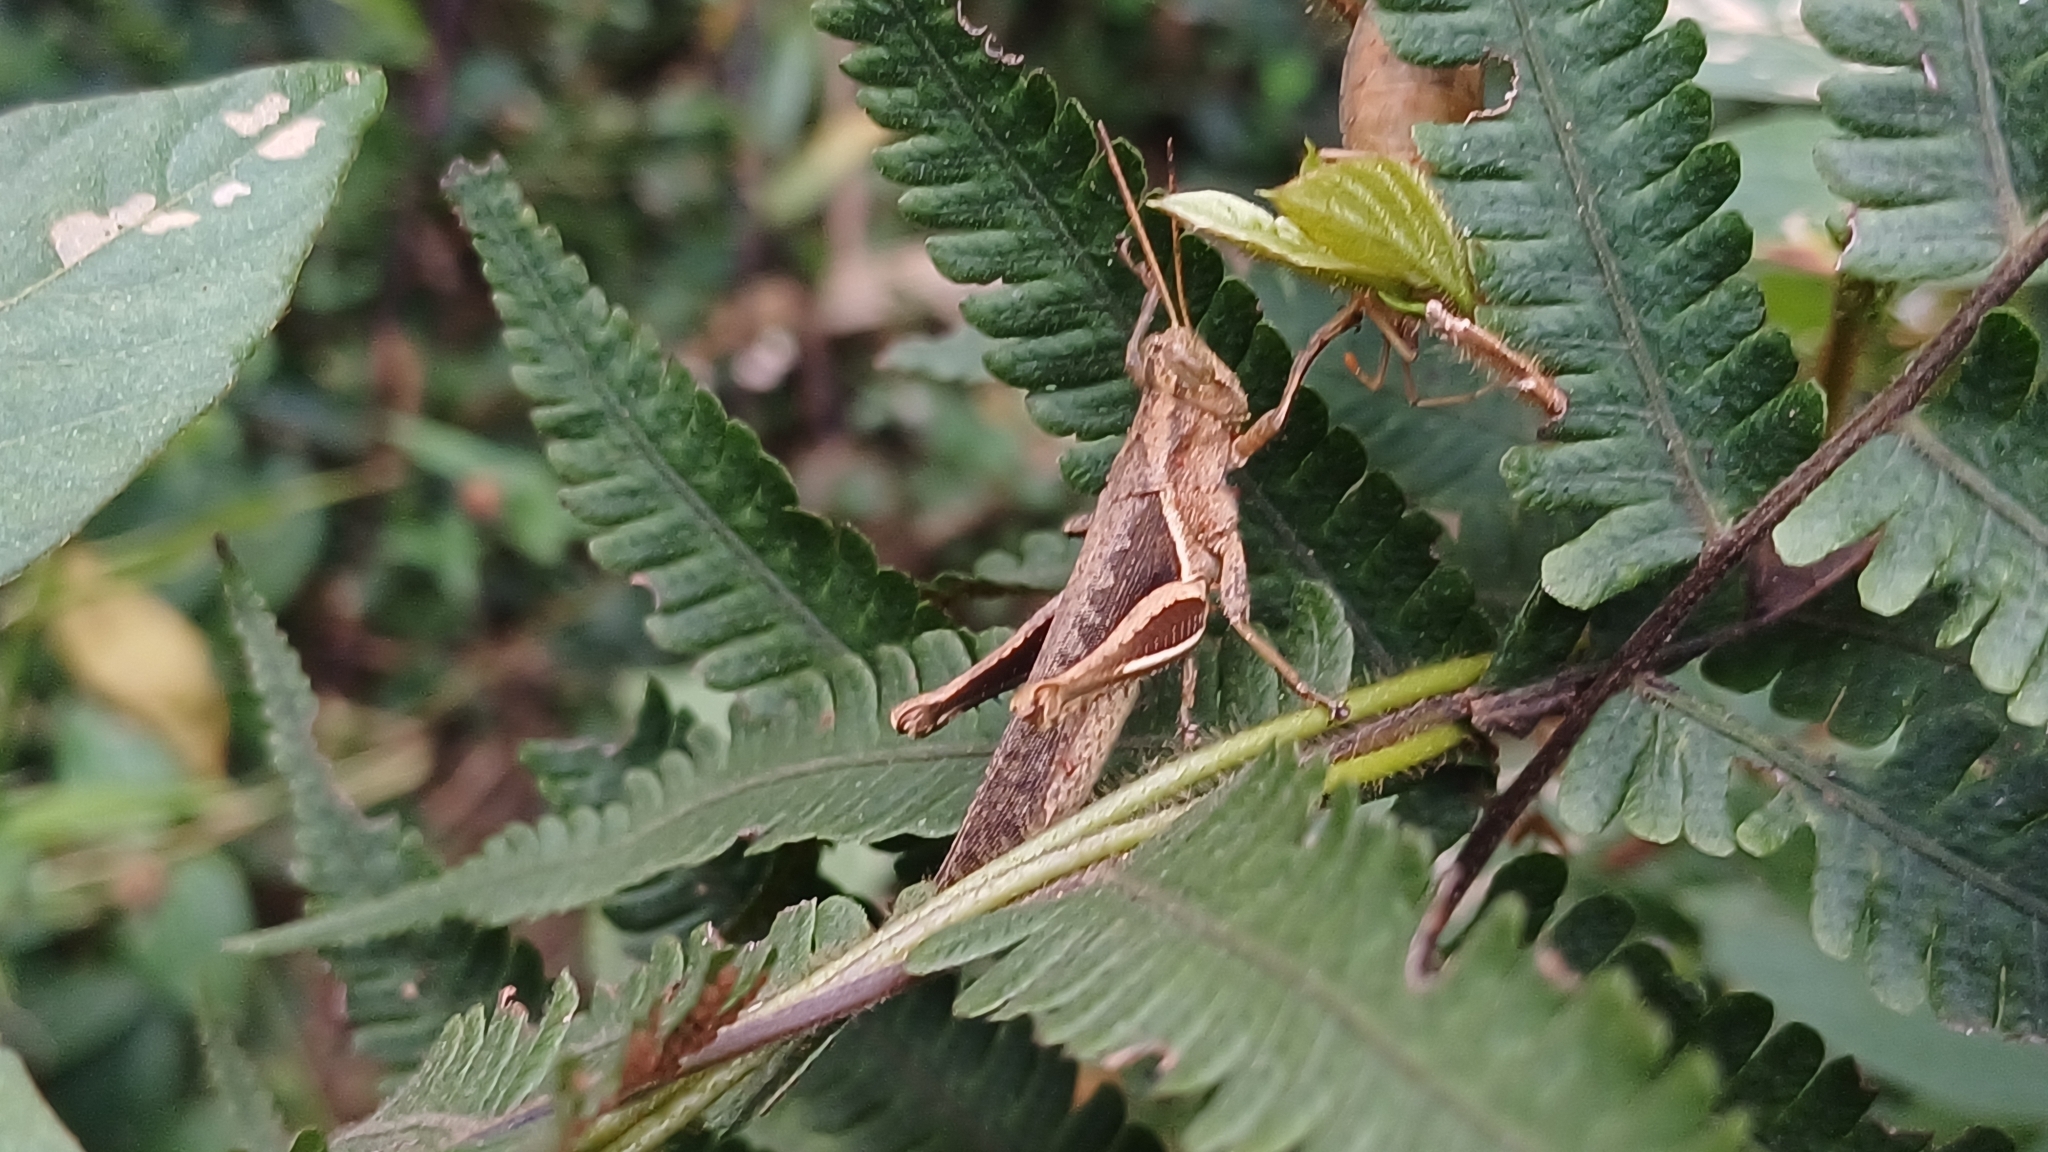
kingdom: Animalia
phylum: Arthropoda
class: Insecta
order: Orthoptera
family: Acrididae
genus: Abracris
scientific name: Abracris flavolineata
